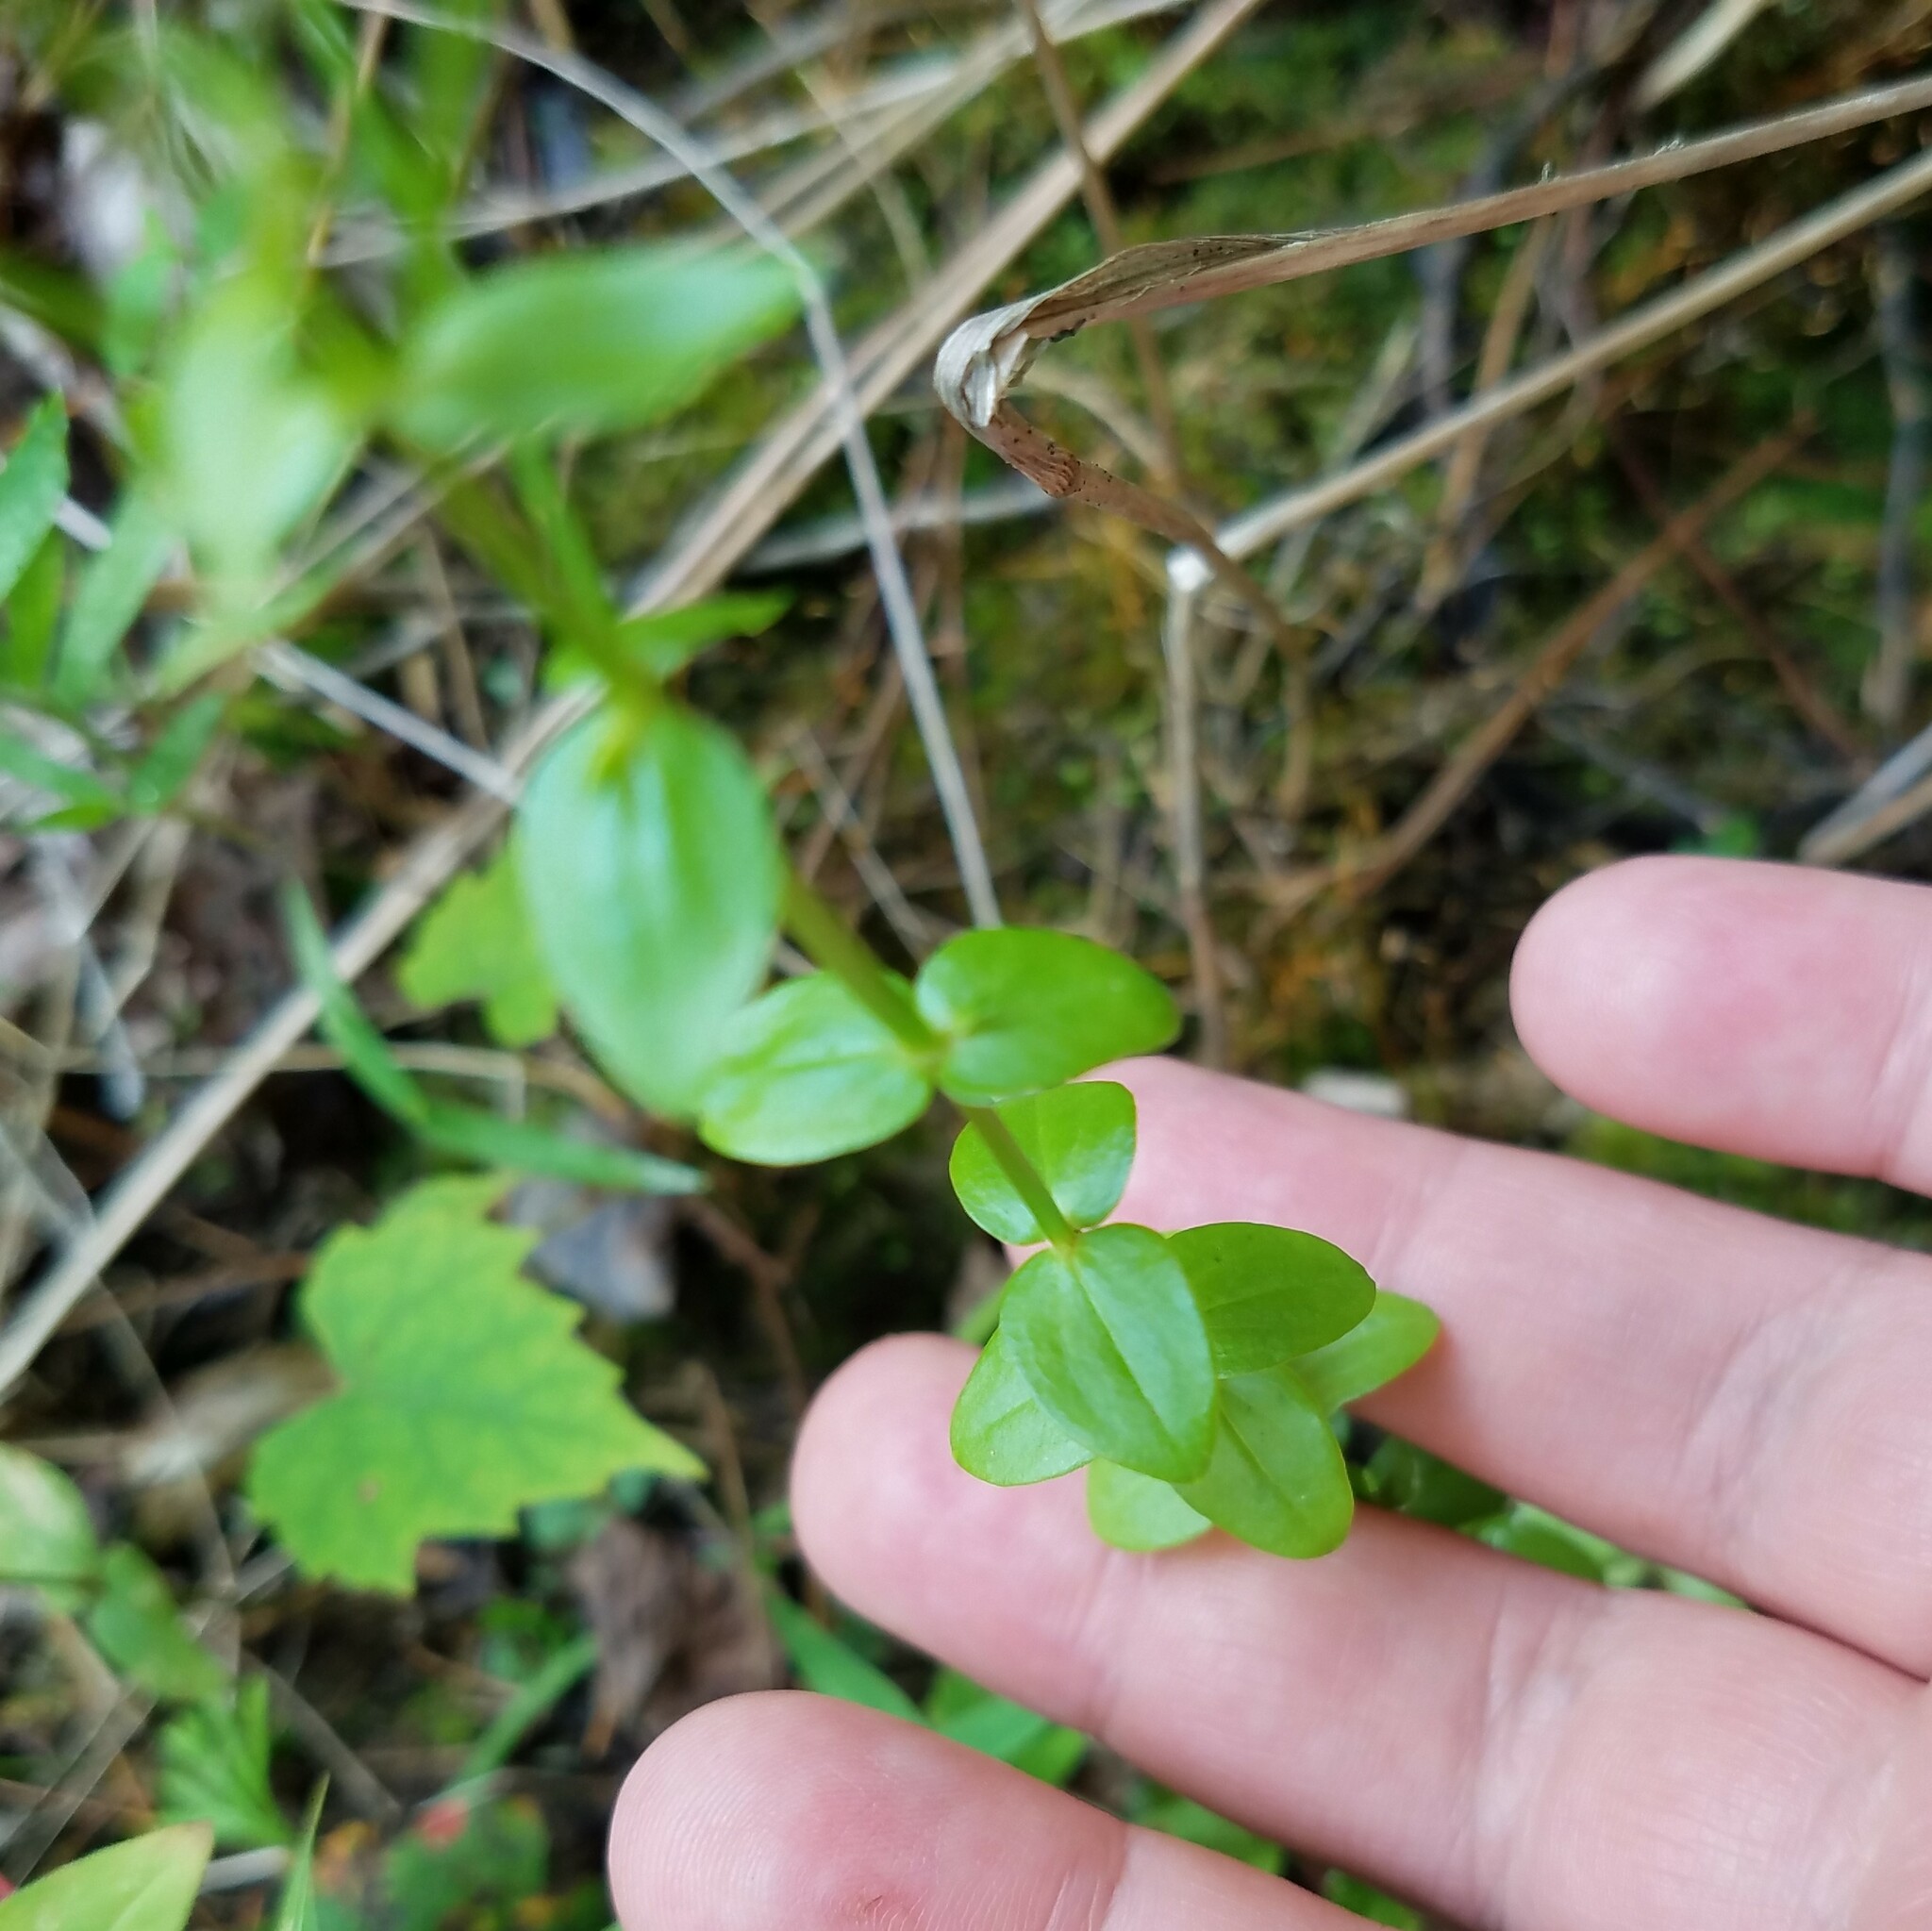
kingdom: Plantae
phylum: Tracheophyta
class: Magnoliopsida
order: Gentianales
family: Gentianaceae
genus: Sabatia
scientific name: Sabatia angularis
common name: Rose-pink
